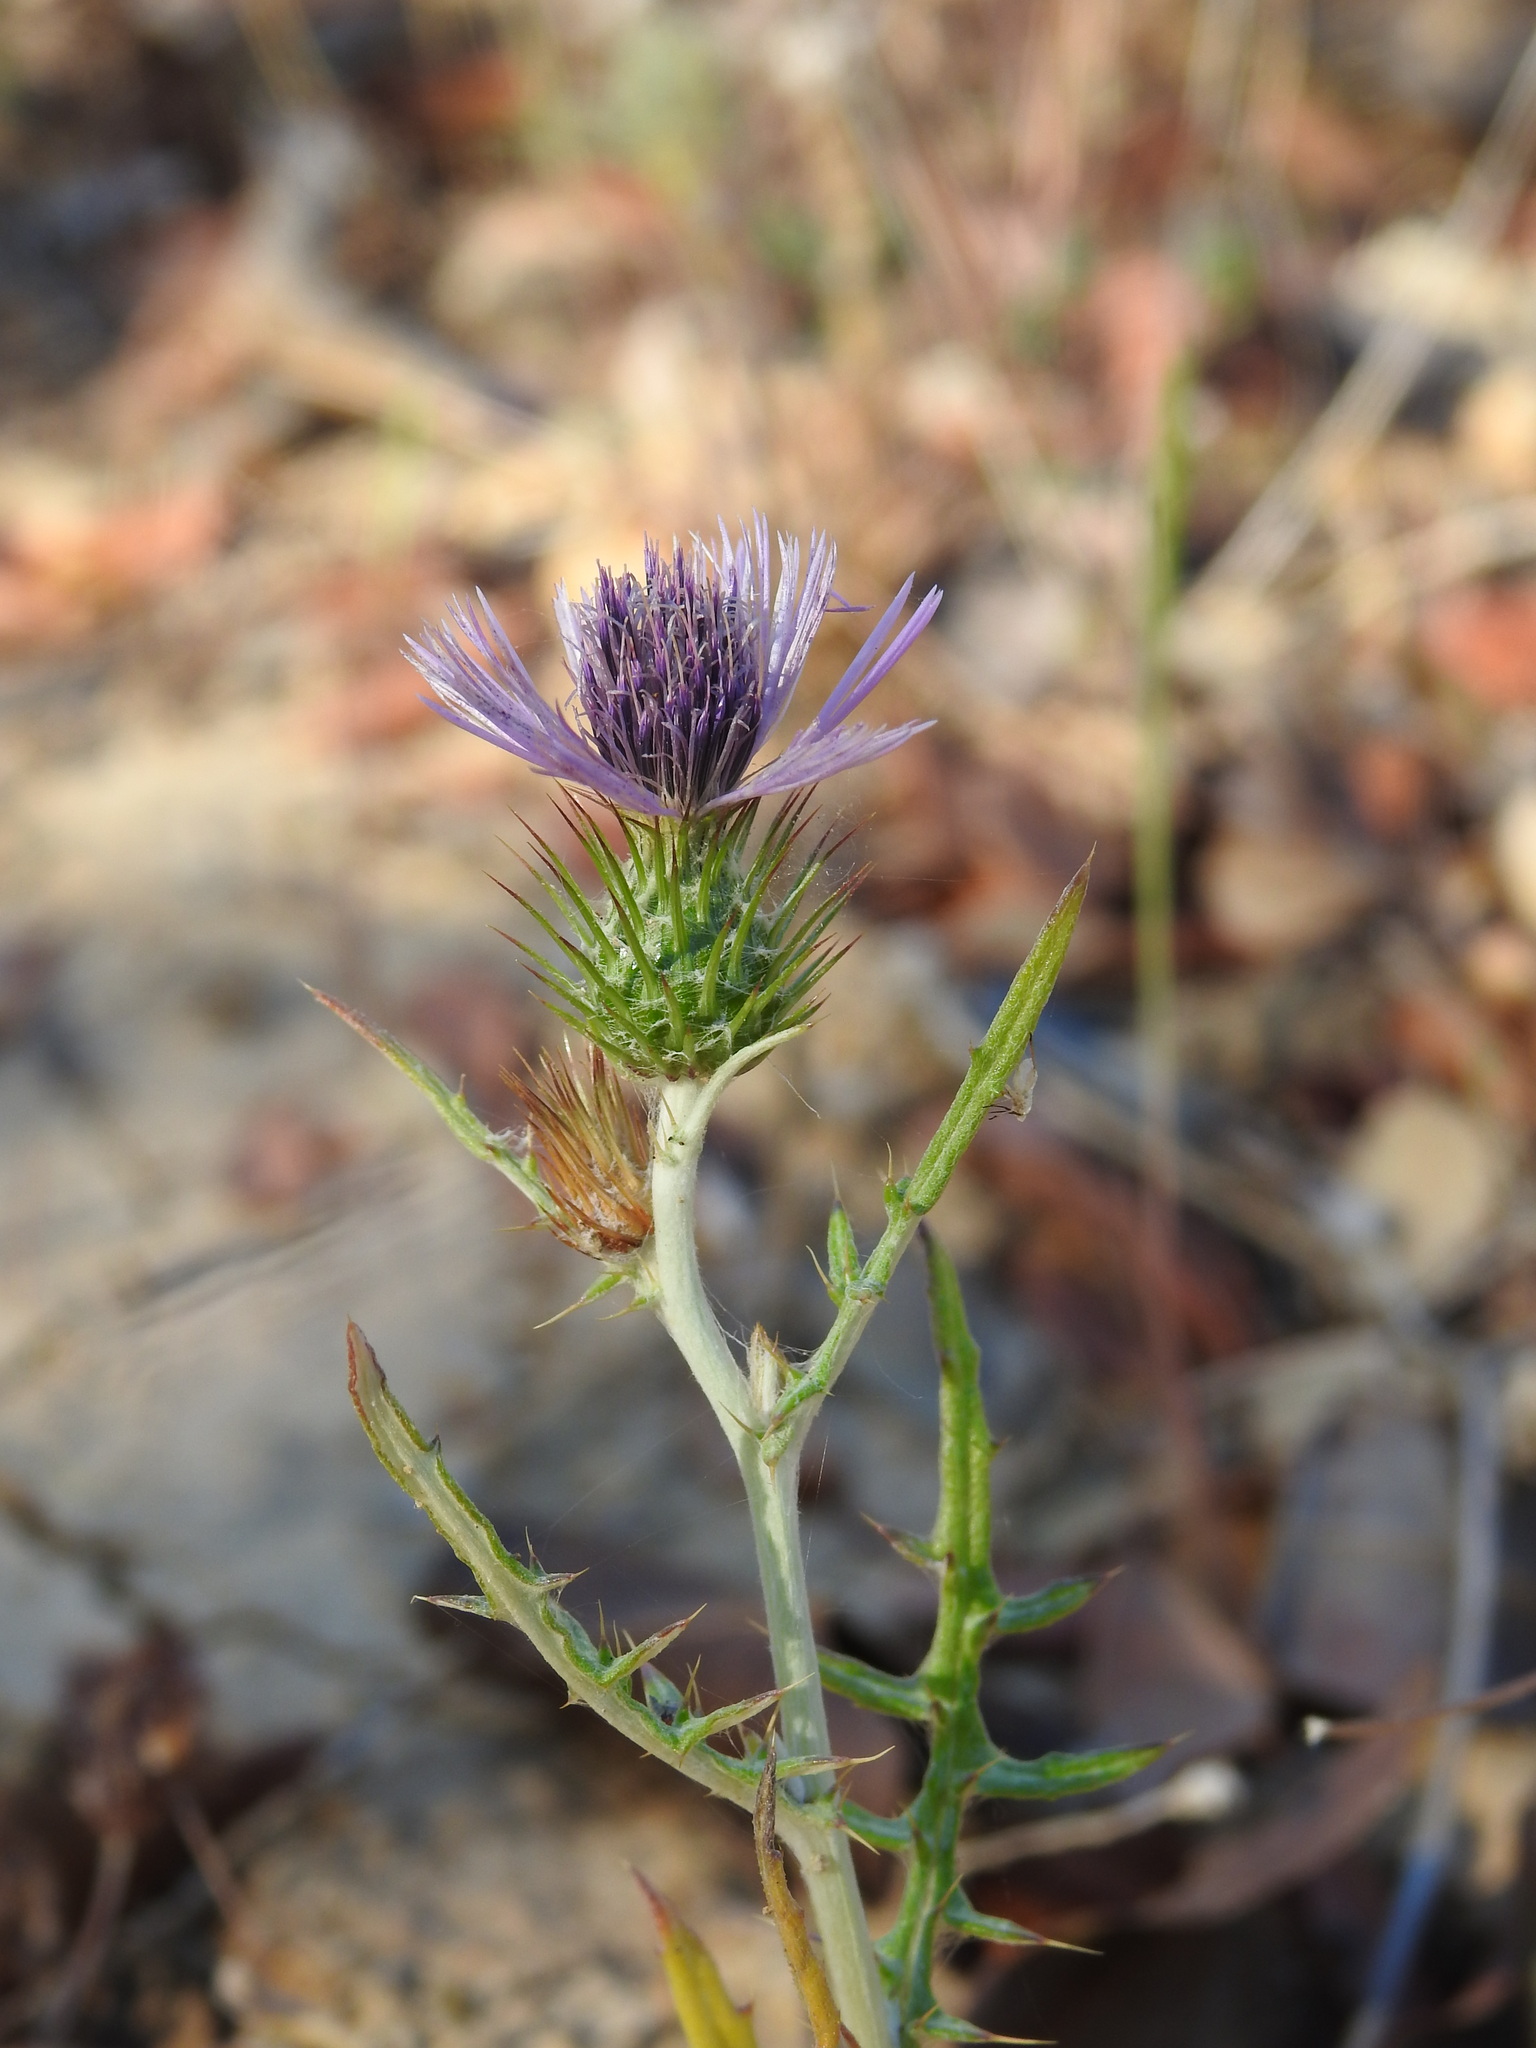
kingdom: Plantae
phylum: Tracheophyta
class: Magnoliopsida
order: Asterales
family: Asteraceae
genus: Galactites
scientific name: Galactites tomentosa
